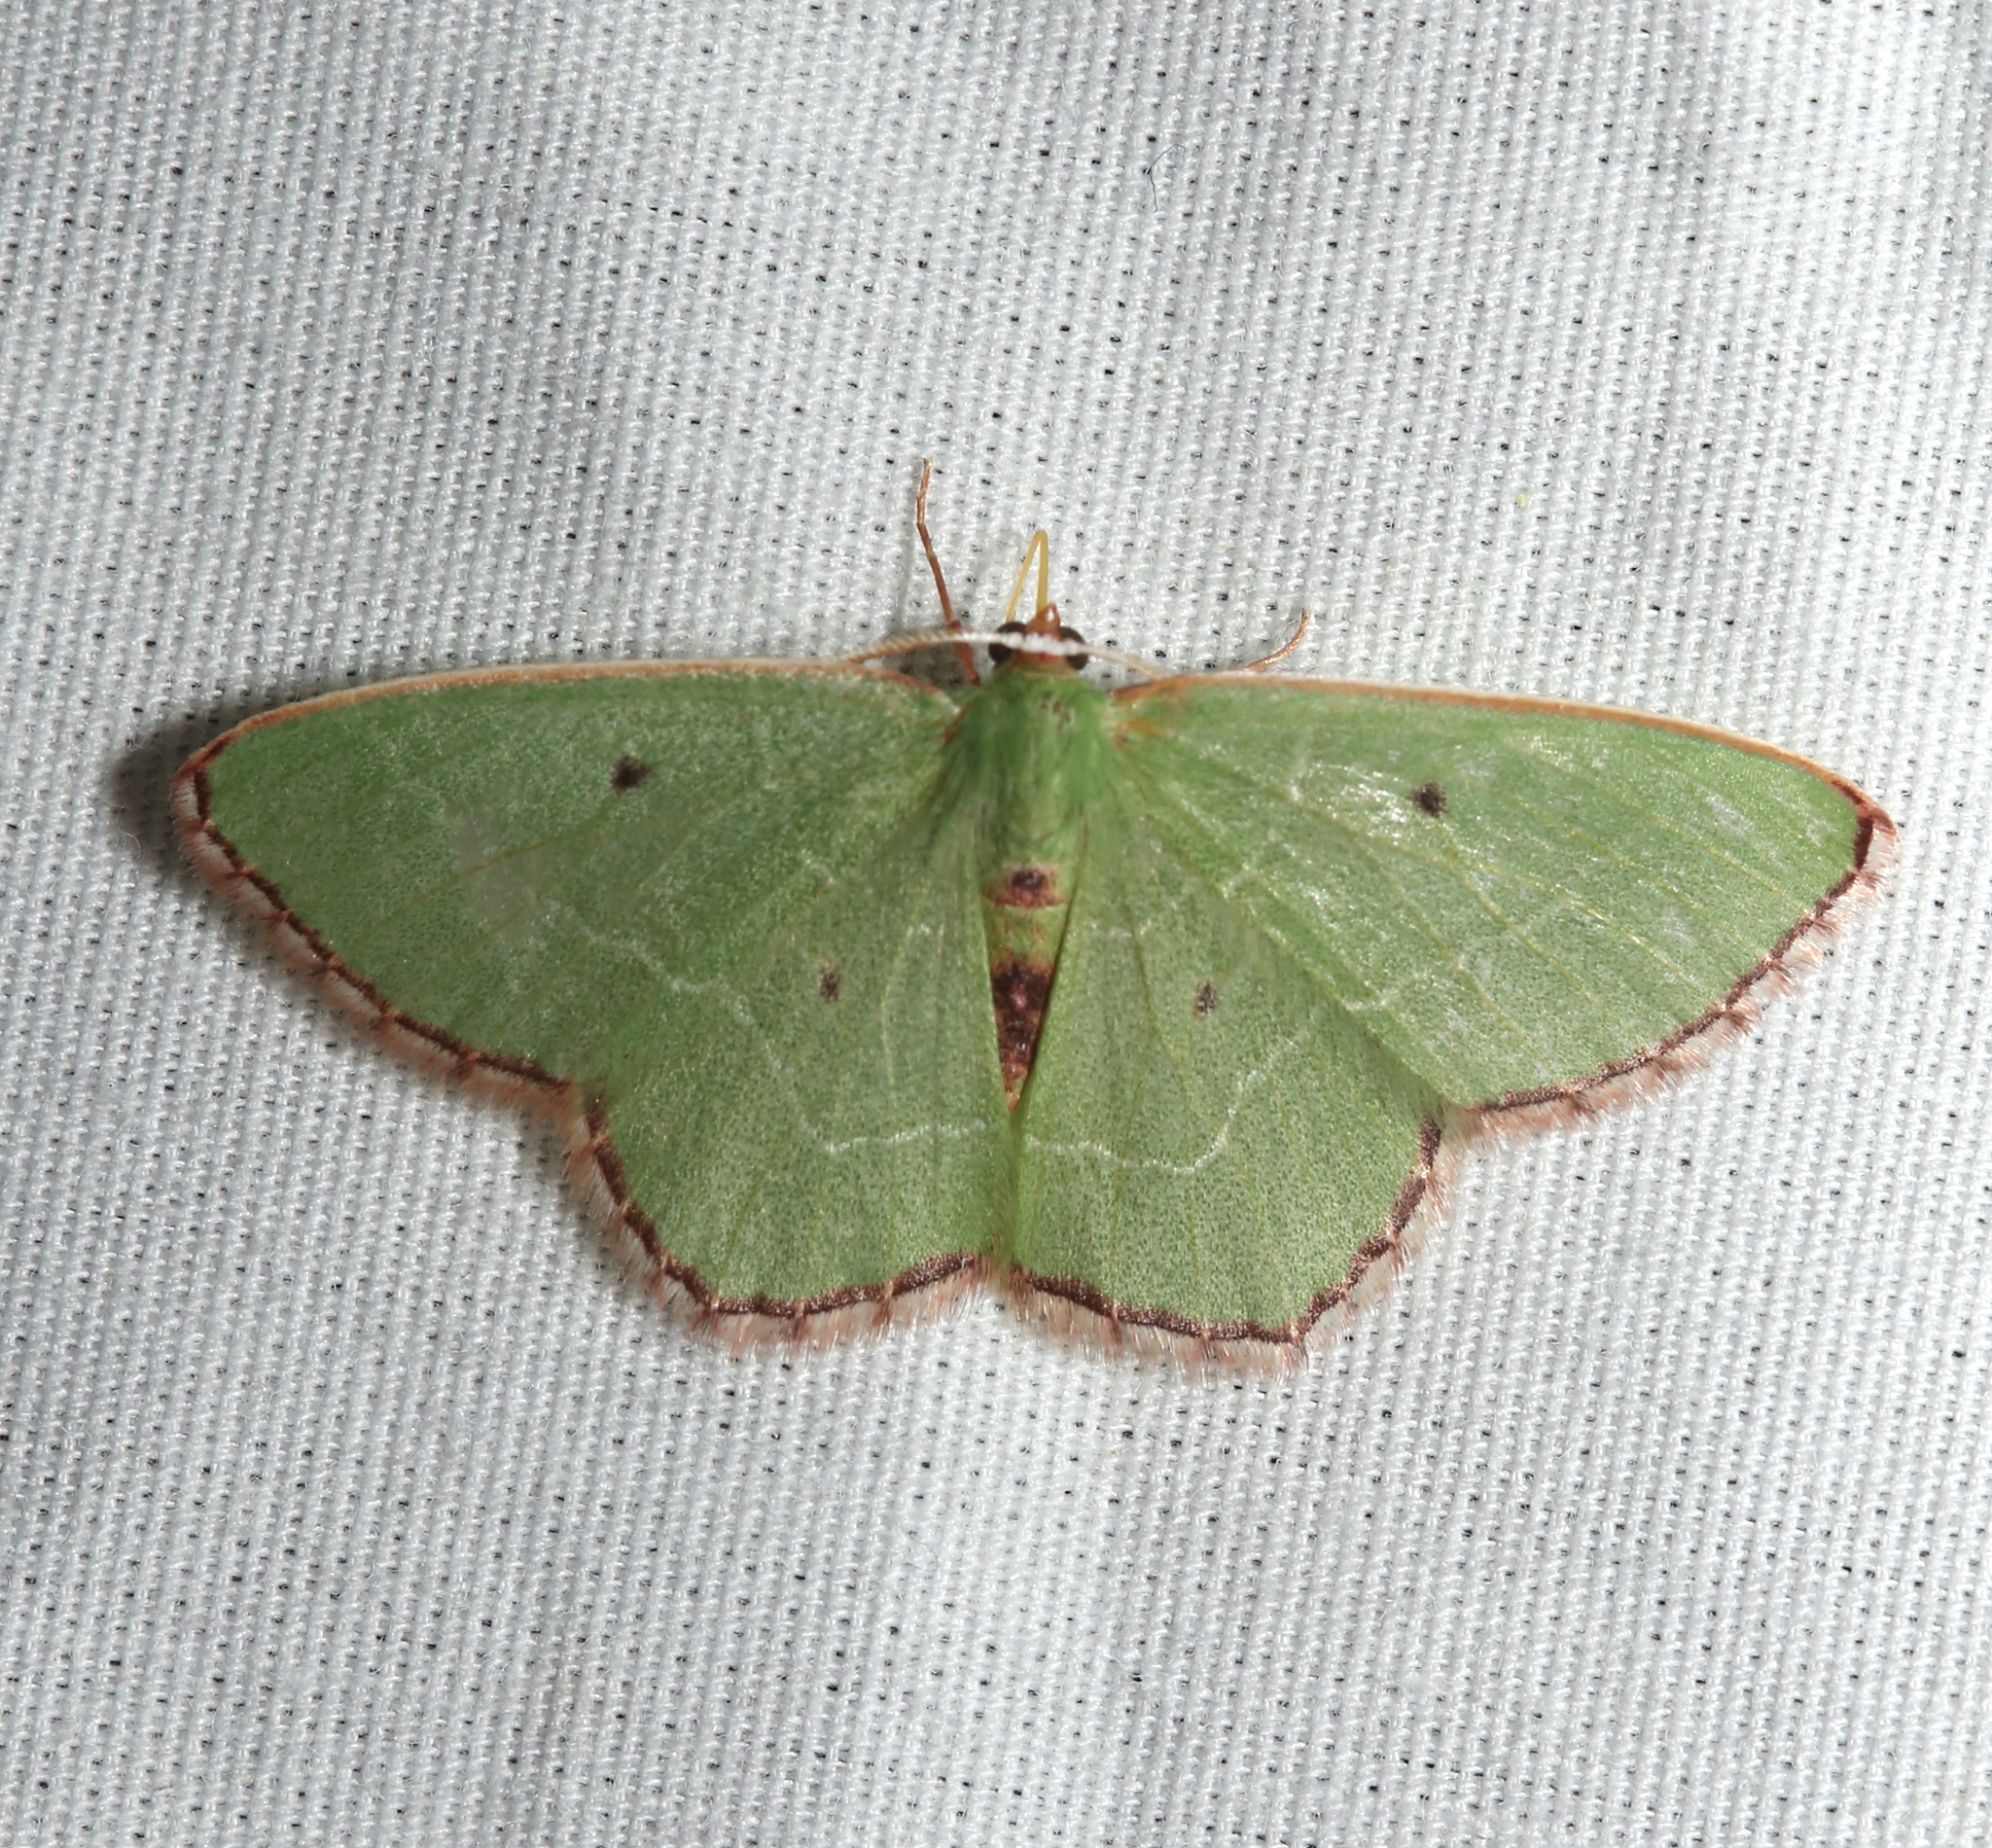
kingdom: Animalia
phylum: Arthropoda
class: Insecta
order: Lepidoptera
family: Geometridae
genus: Nemoria
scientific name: Nemoria saturiba
